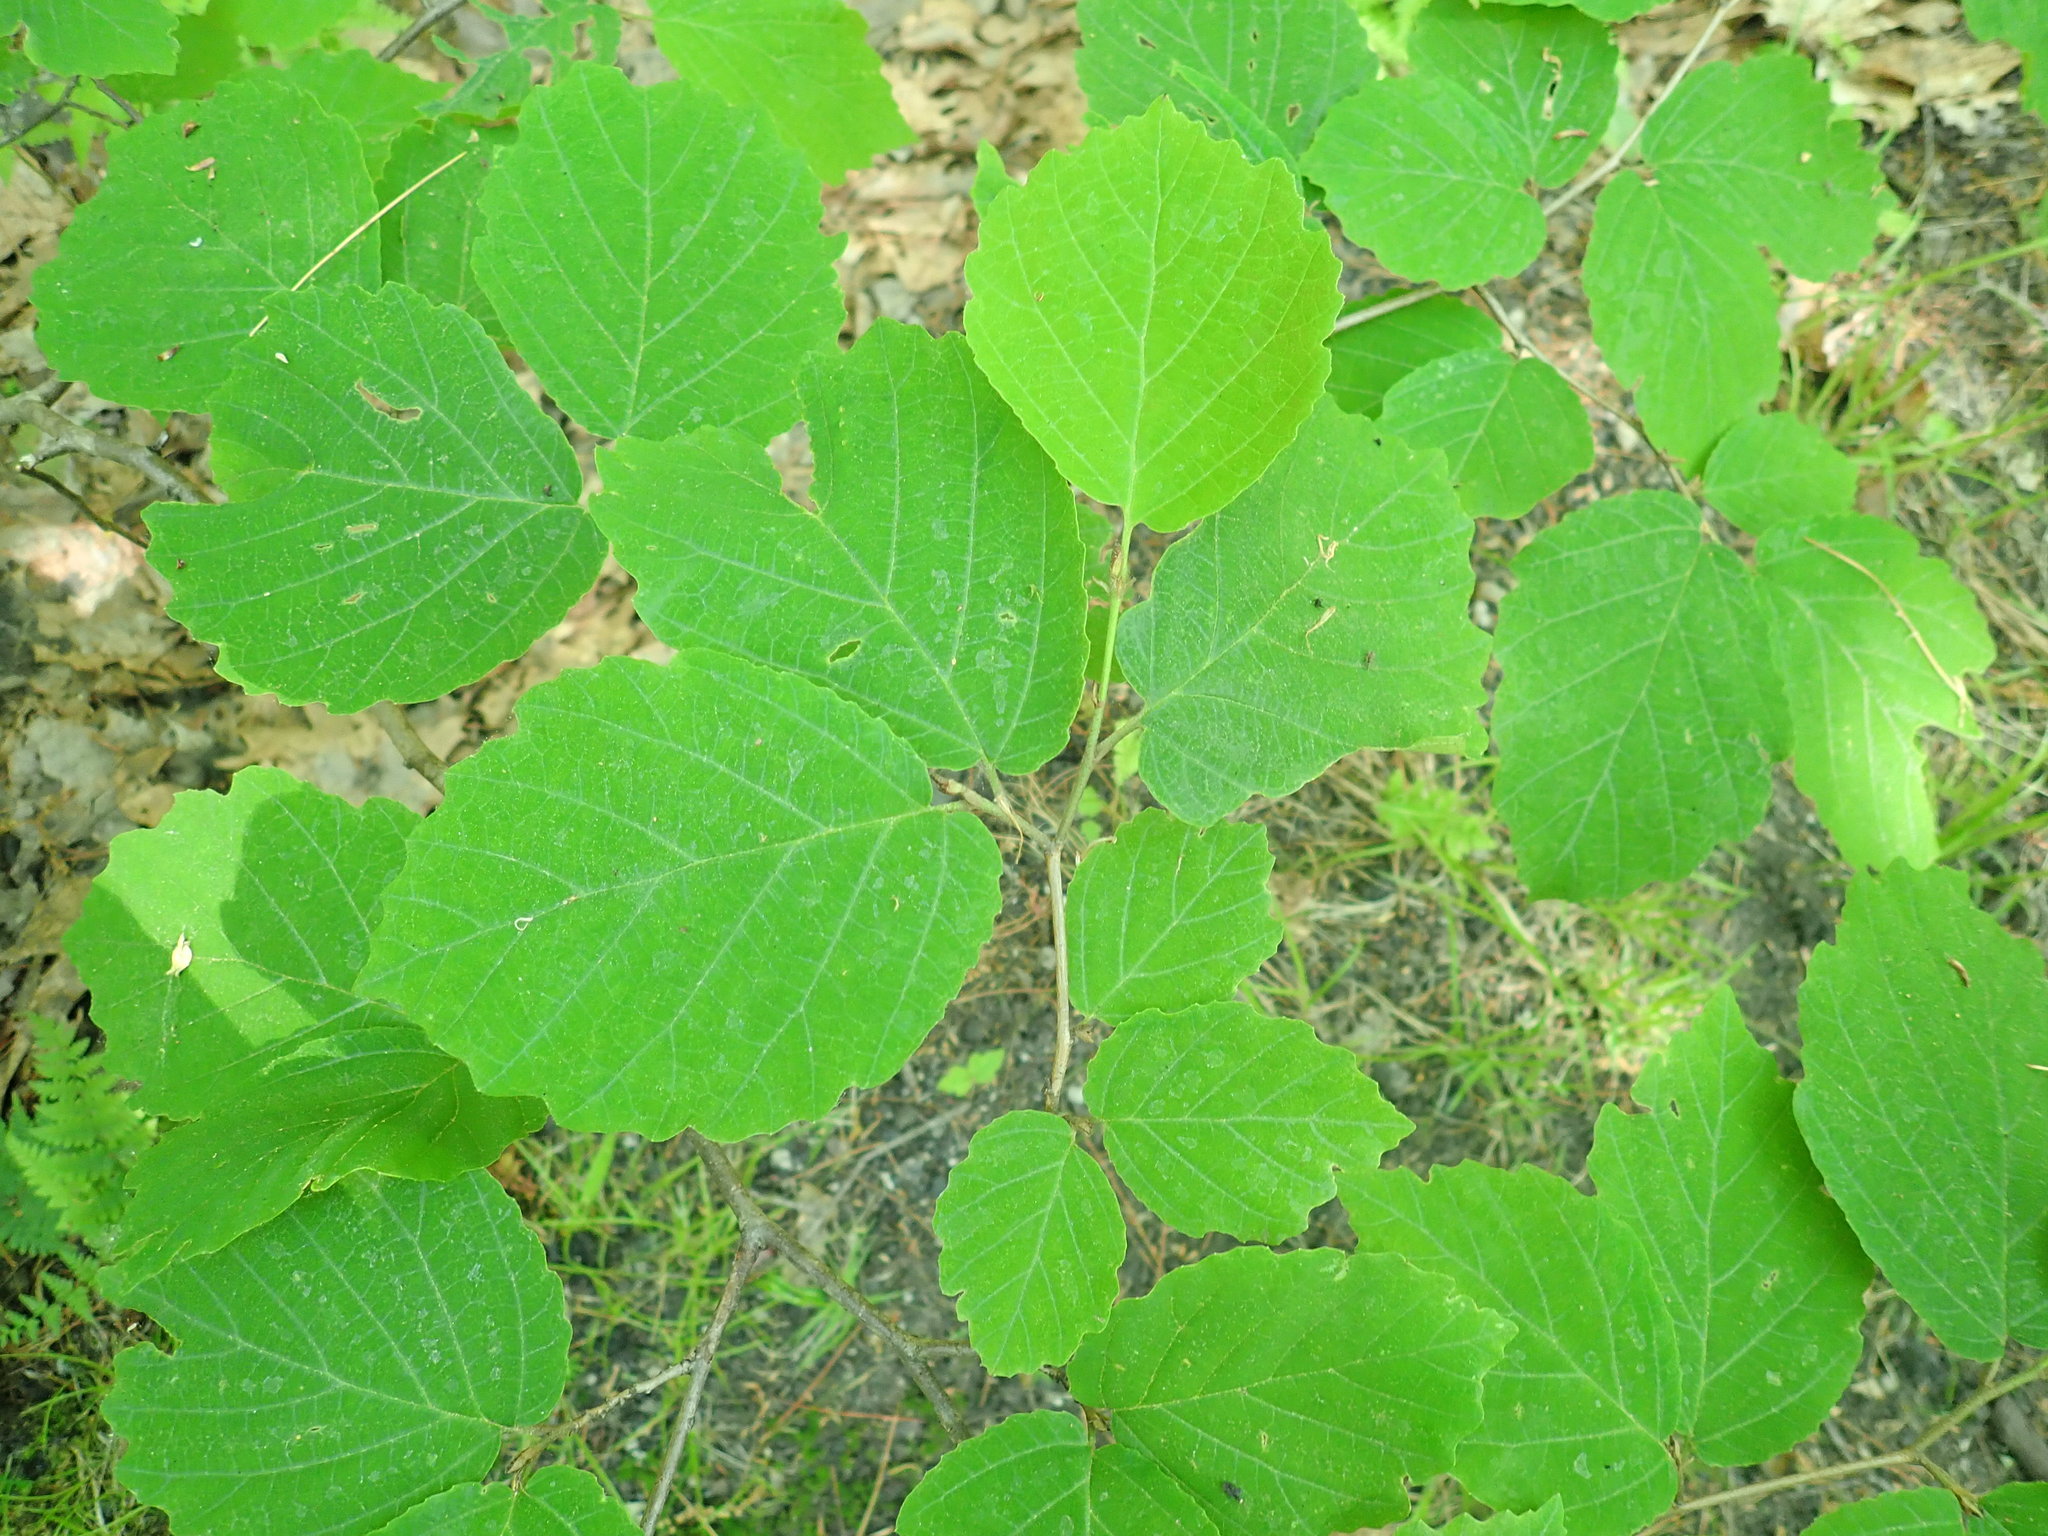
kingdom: Plantae
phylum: Tracheophyta
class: Magnoliopsida
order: Saxifragales
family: Hamamelidaceae
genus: Hamamelis
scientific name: Hamamelis virginiana
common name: Witch-hazel
